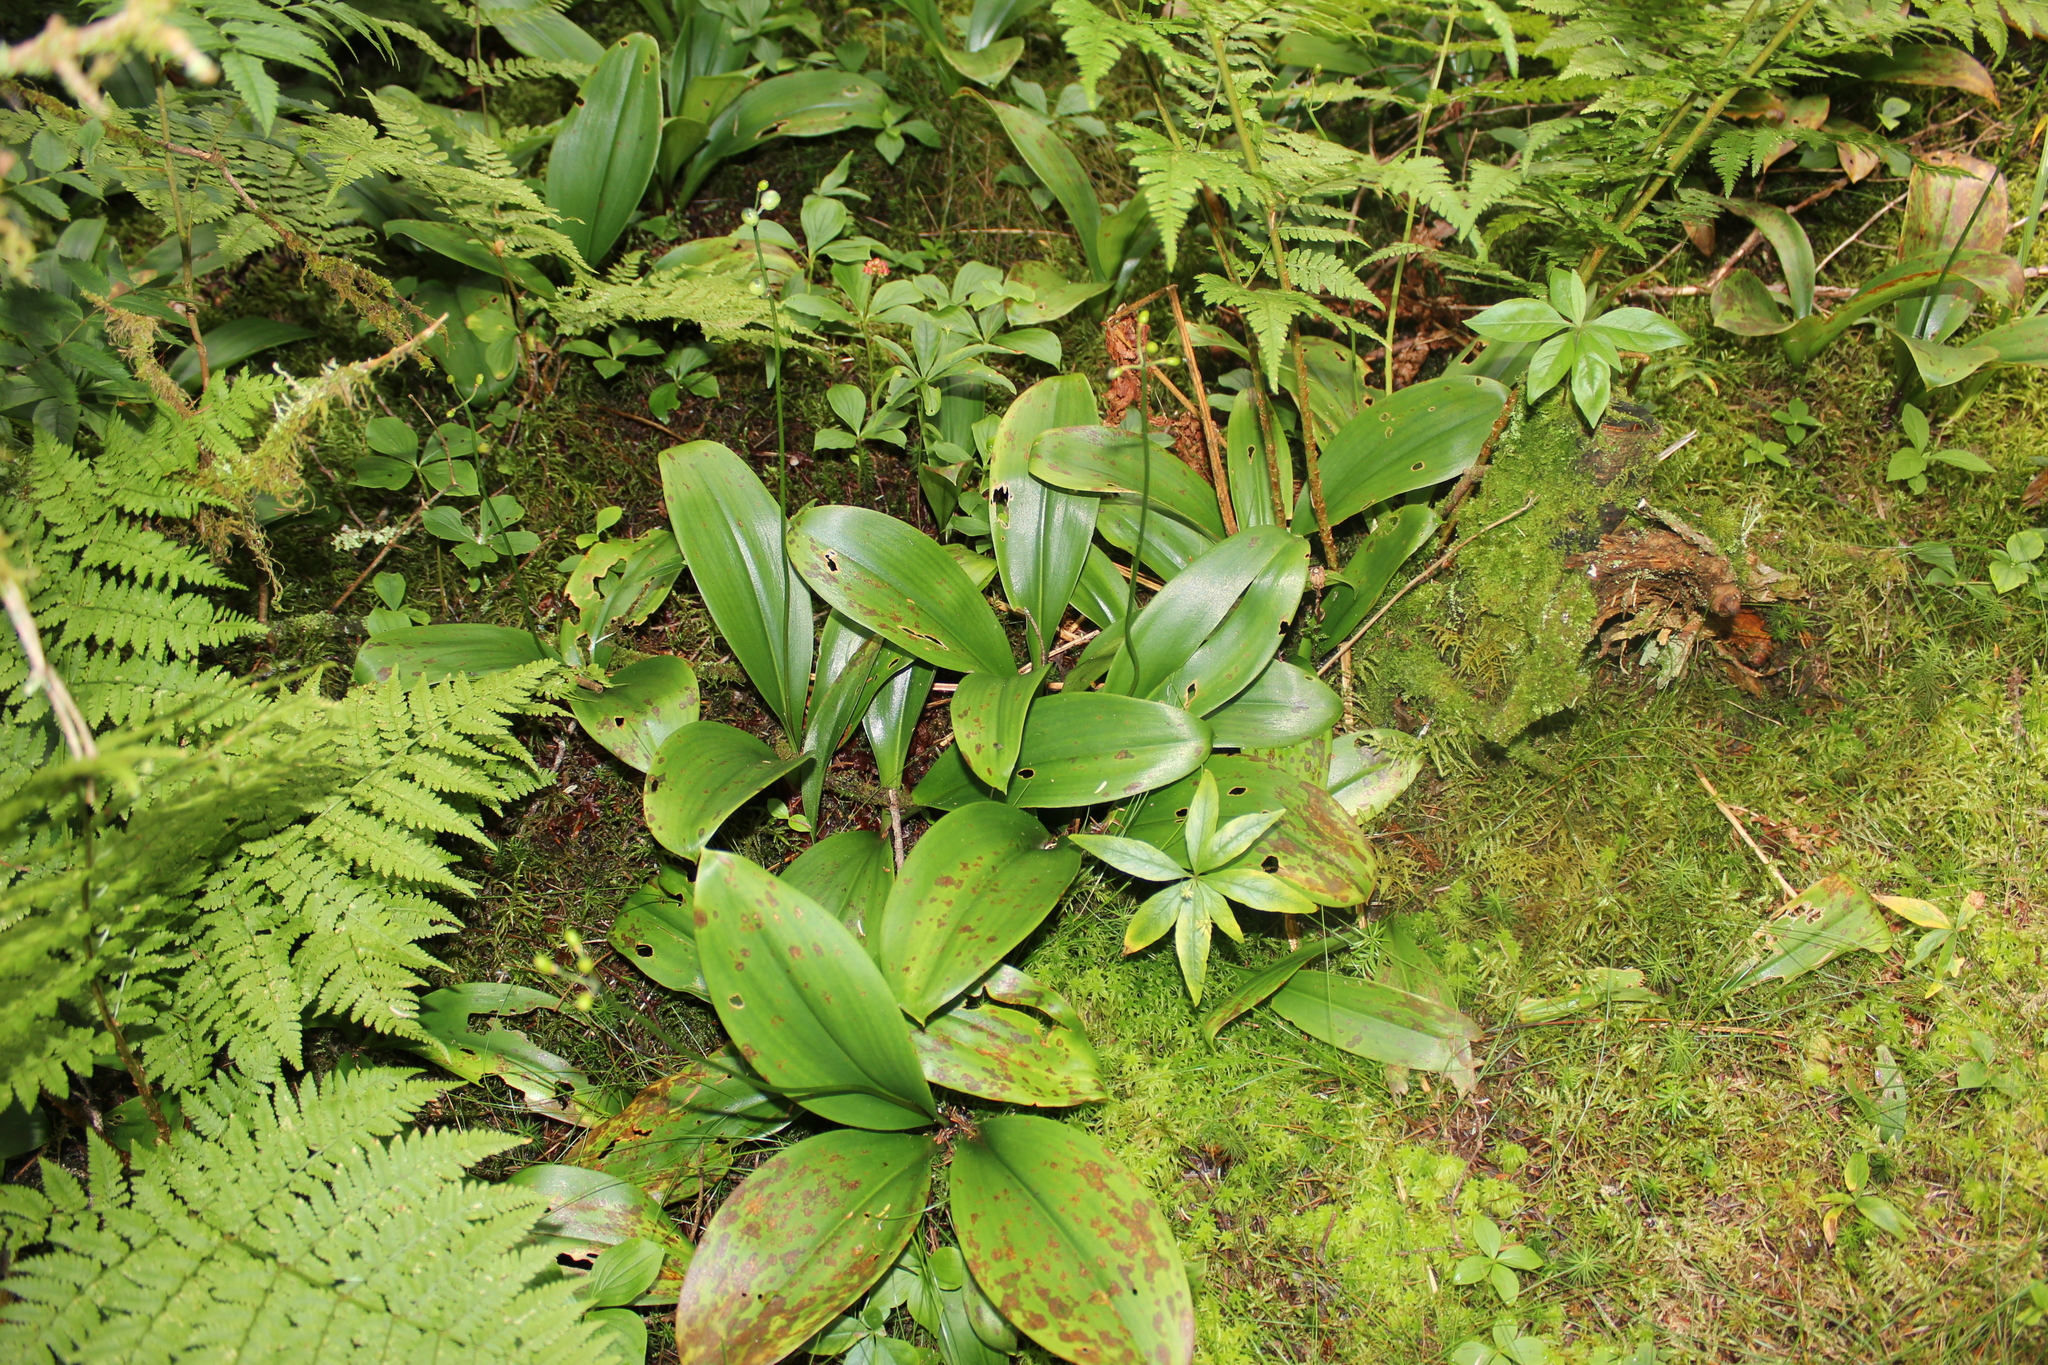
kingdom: Plantae
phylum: Tracheophyta
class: Magnoliopsida
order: Ericales
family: Primulaceae
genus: Lysimachia
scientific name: Lysimachia borealis
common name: American starflower
